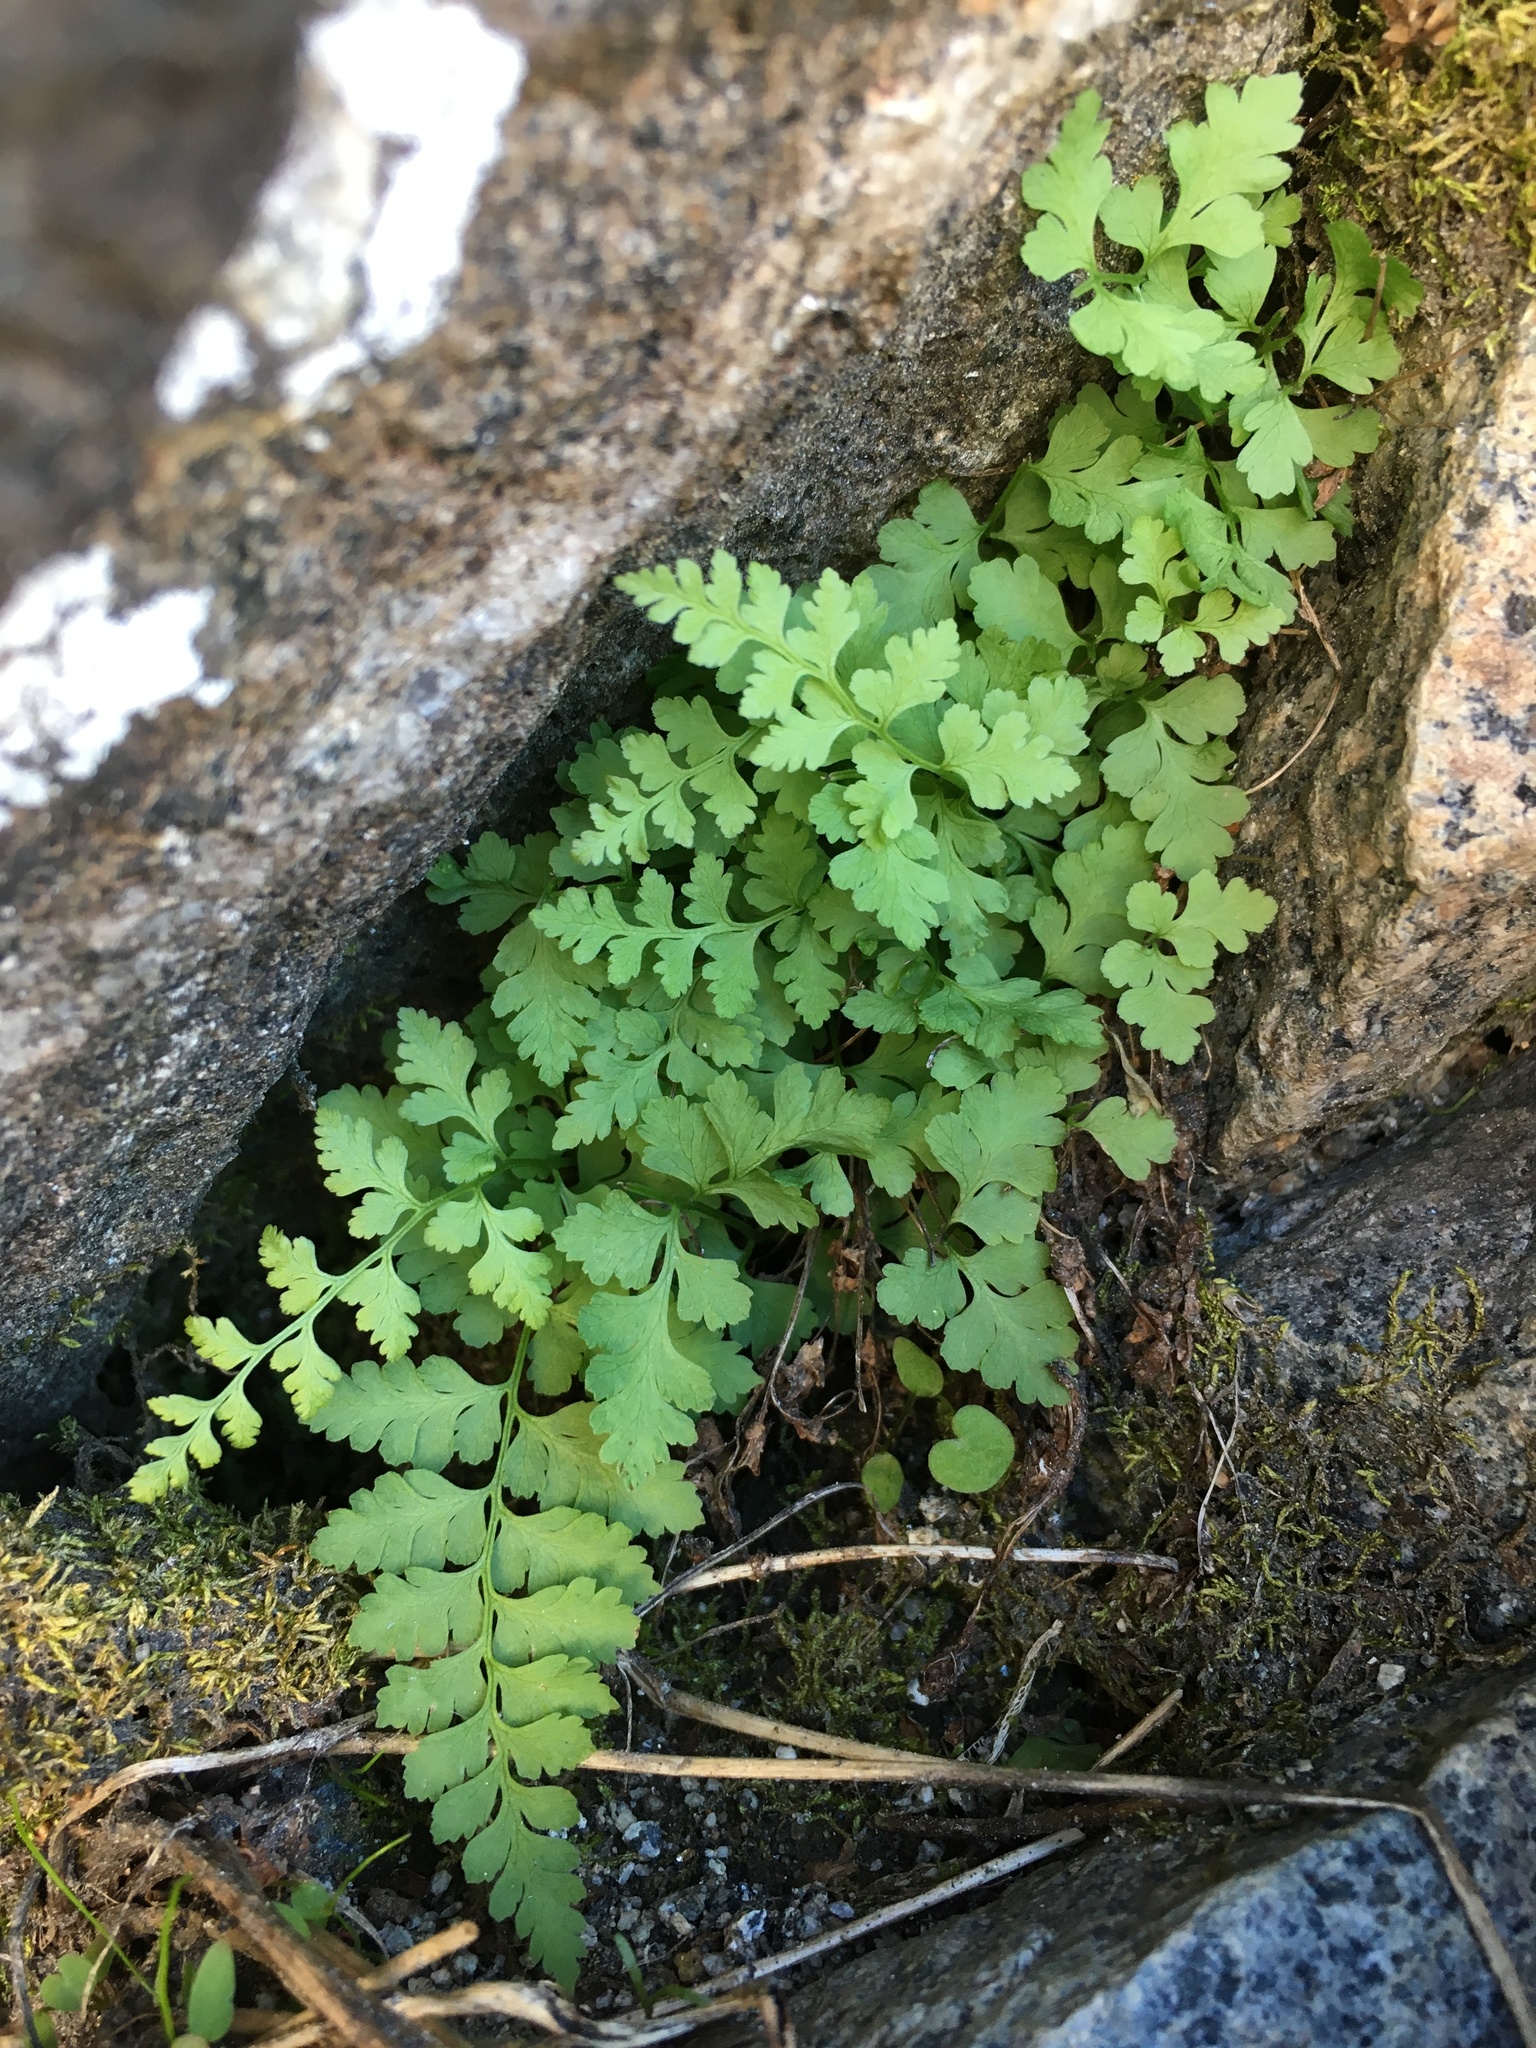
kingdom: Plantae
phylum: Tracheophyta
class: Polypodiopsida
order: Polypodiales
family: Cystopteridaceae
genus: Cystopteris
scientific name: Cystopteris fragilis
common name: Brittle bladder fern
